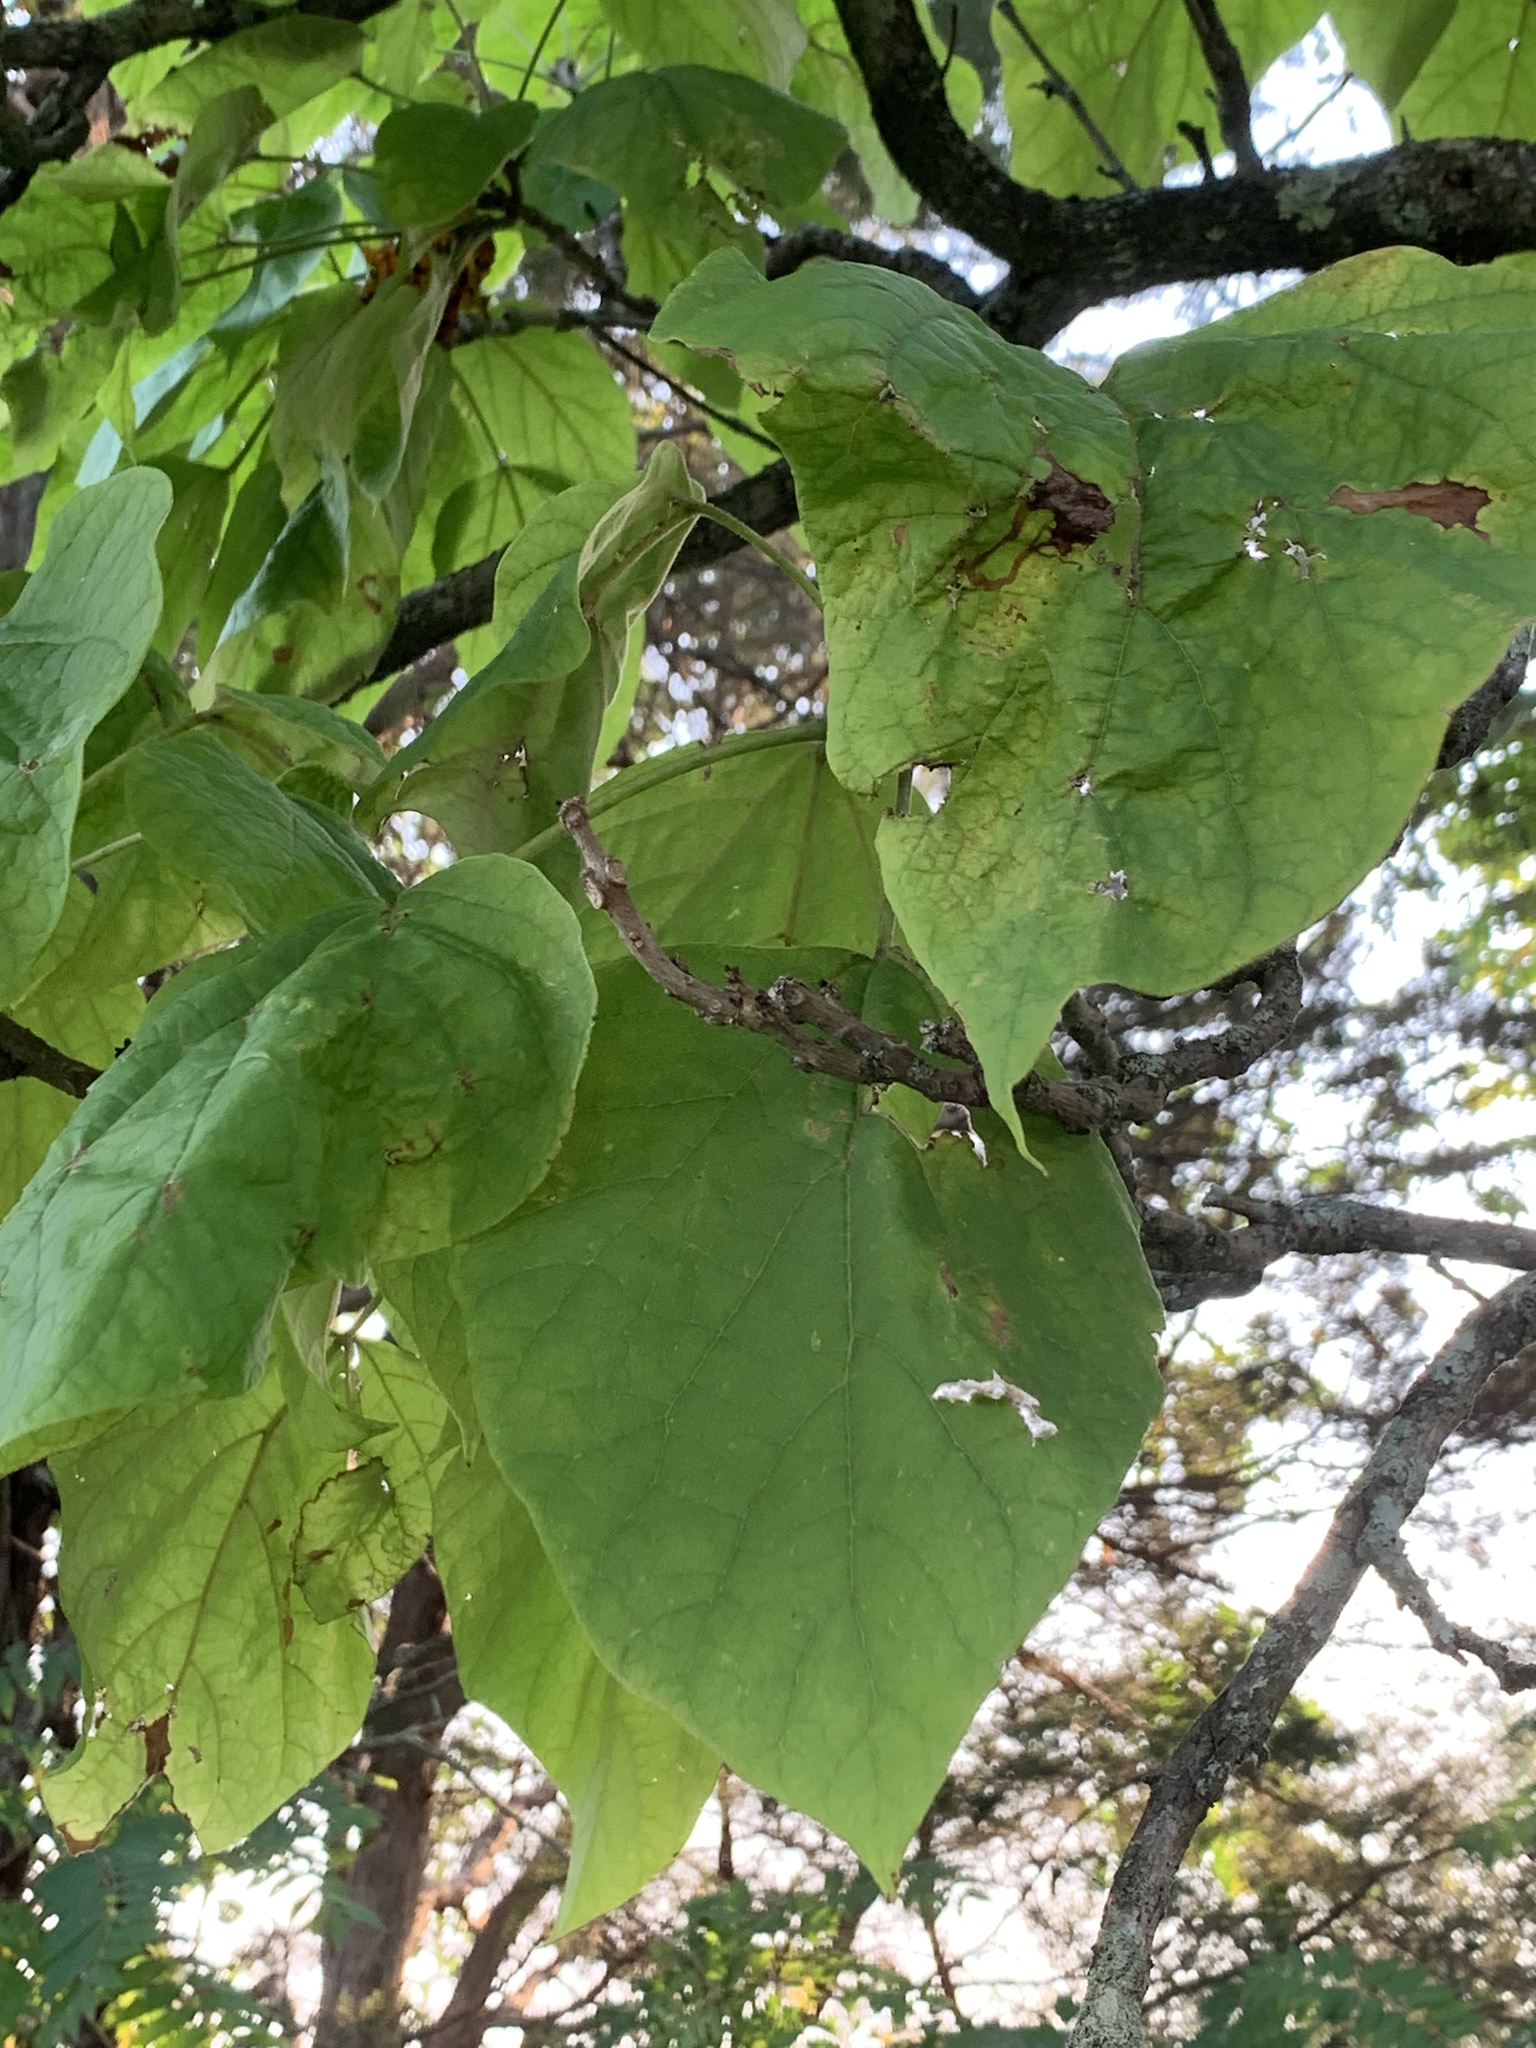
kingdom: Plantae
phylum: Tracheophyta
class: Magnoliopsida
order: Lamiales
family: Bignoniaceae
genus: Catalpa
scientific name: Catalpa bignonioides
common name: Southern catalpa
